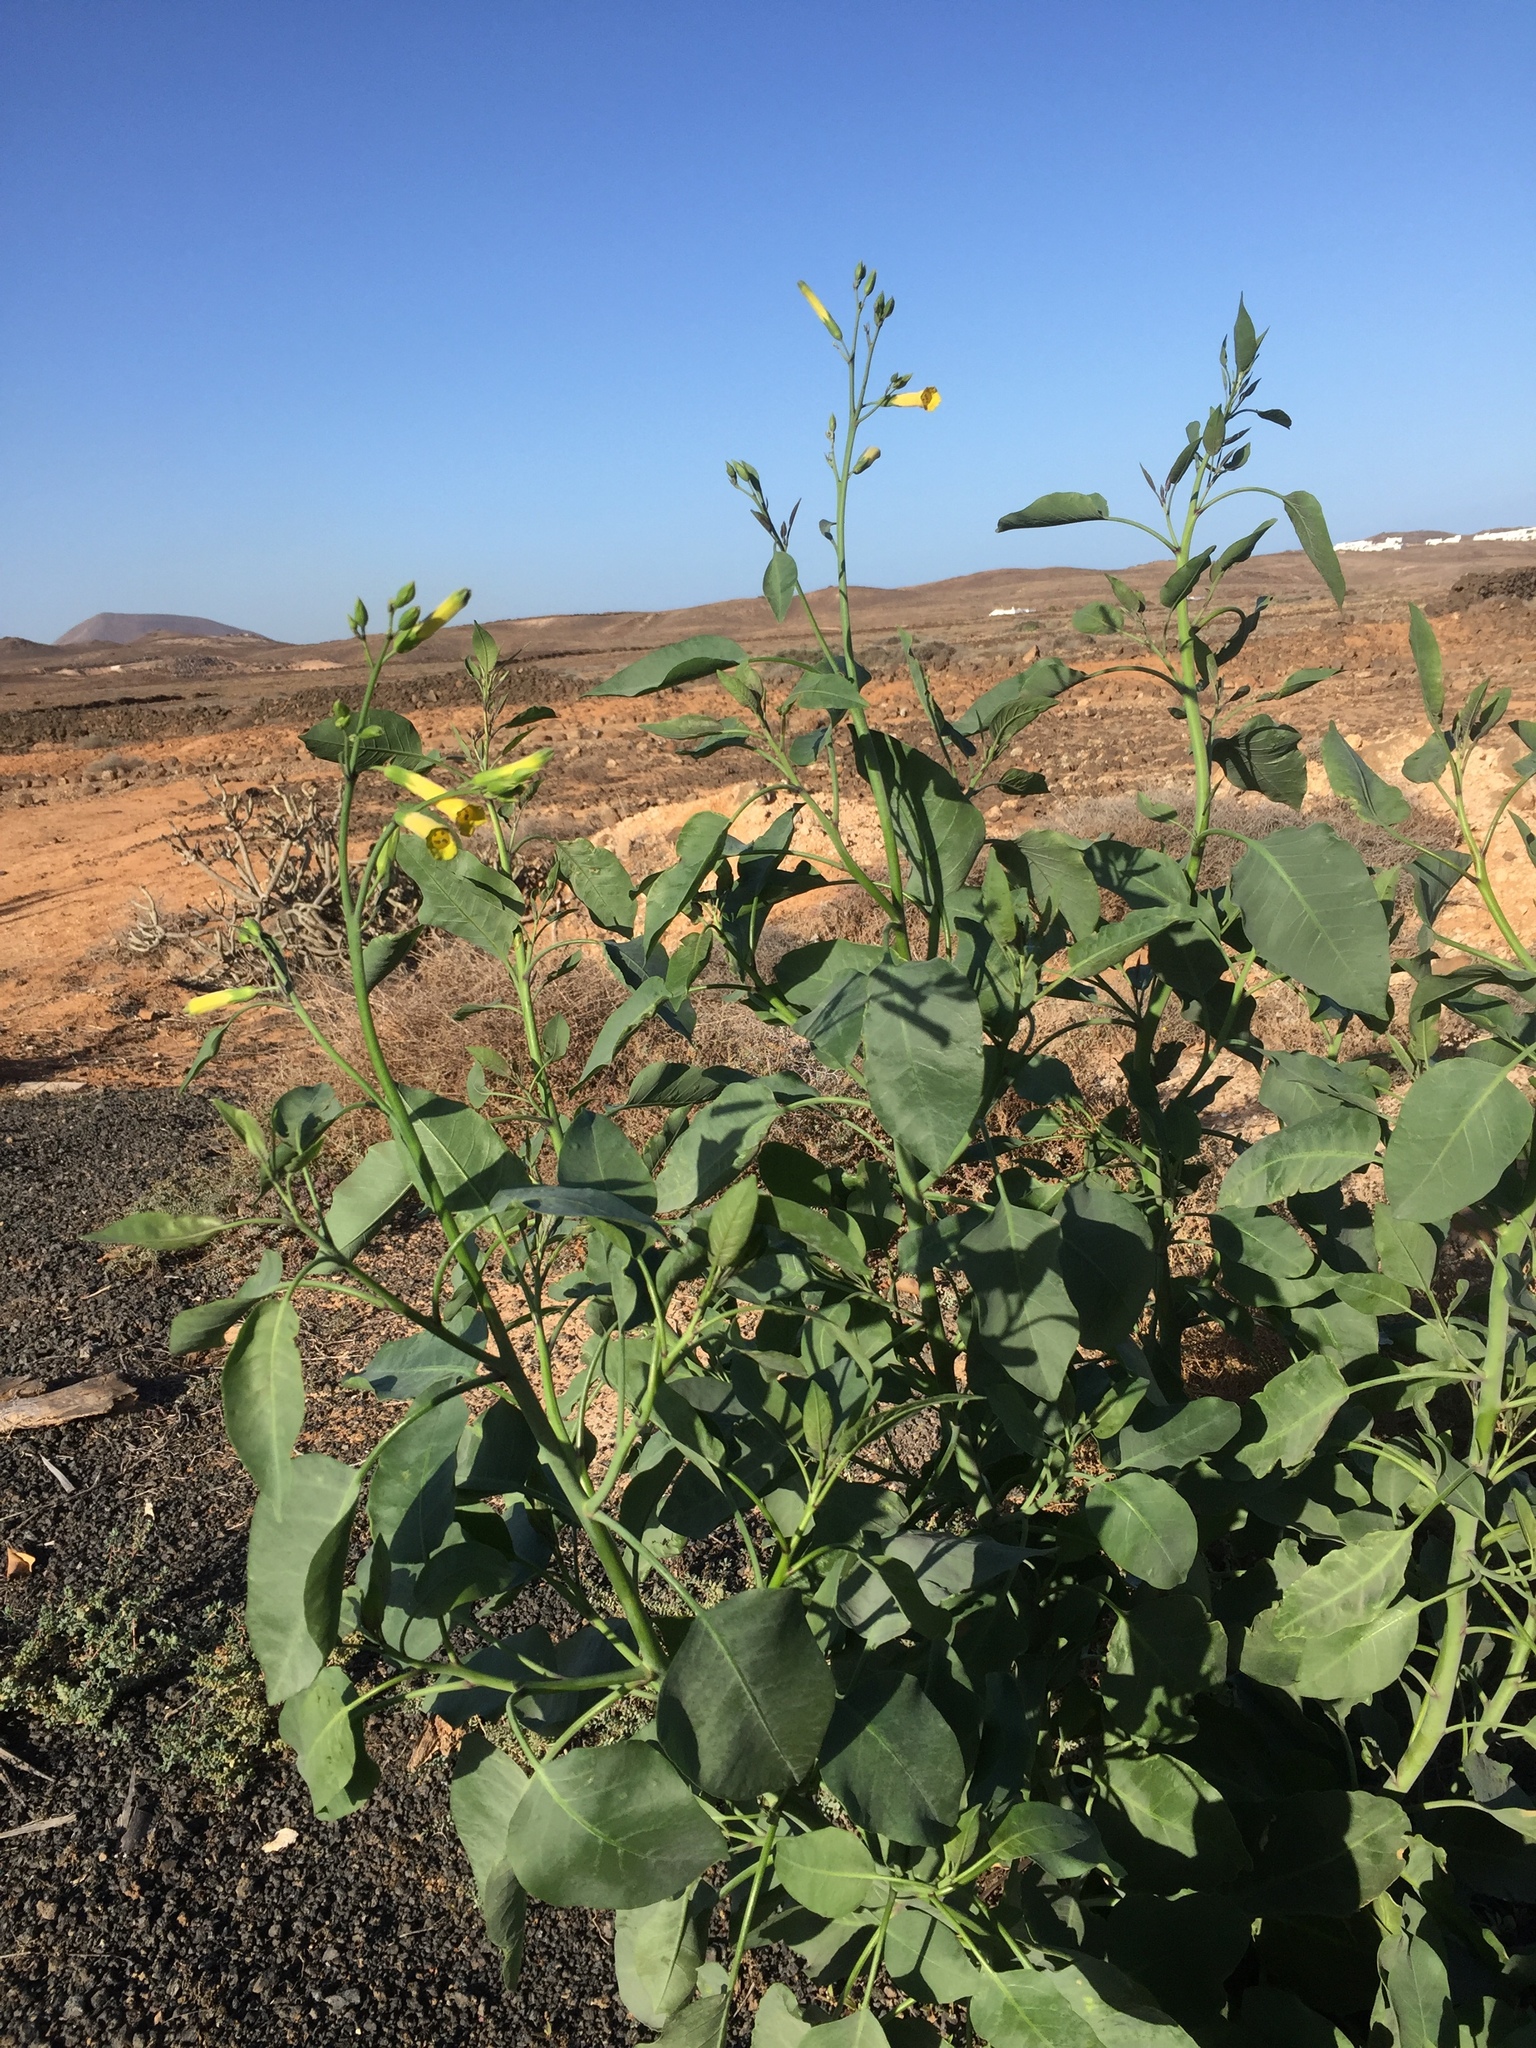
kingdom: Plantae
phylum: Tracheophyta
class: Magnoliopsida
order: Solanales
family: Solanaceae
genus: Nicotiana
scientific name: Nicotiana glauca
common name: Tree tobacco
